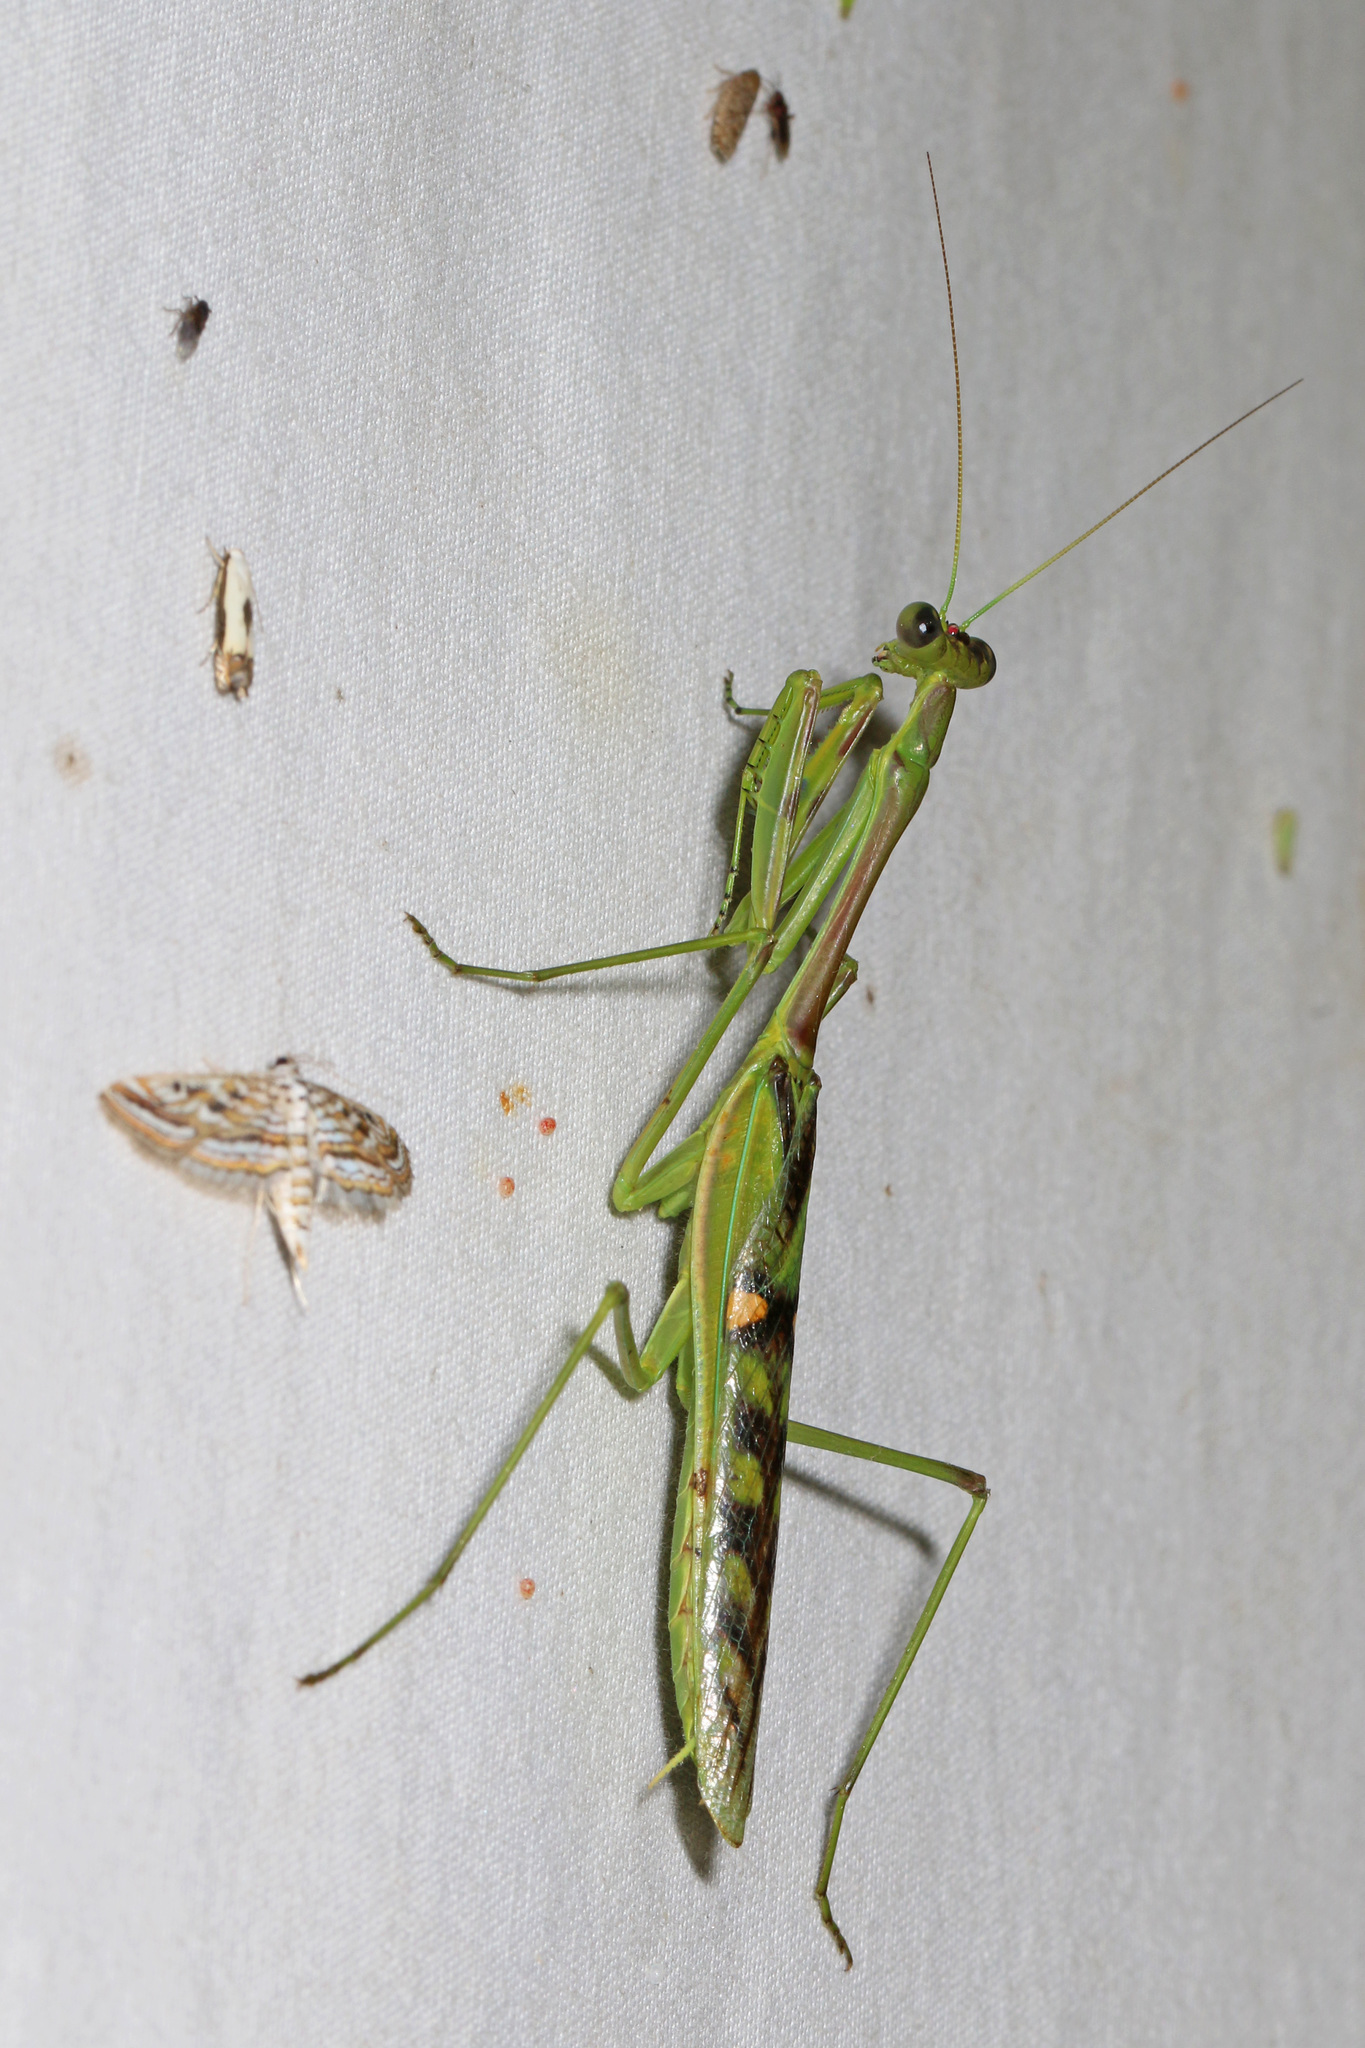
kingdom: Animalia
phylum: Arthropoda
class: Insecta
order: Mantodea
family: Mantidae
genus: Omomantis
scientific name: Omomantis zebrata
